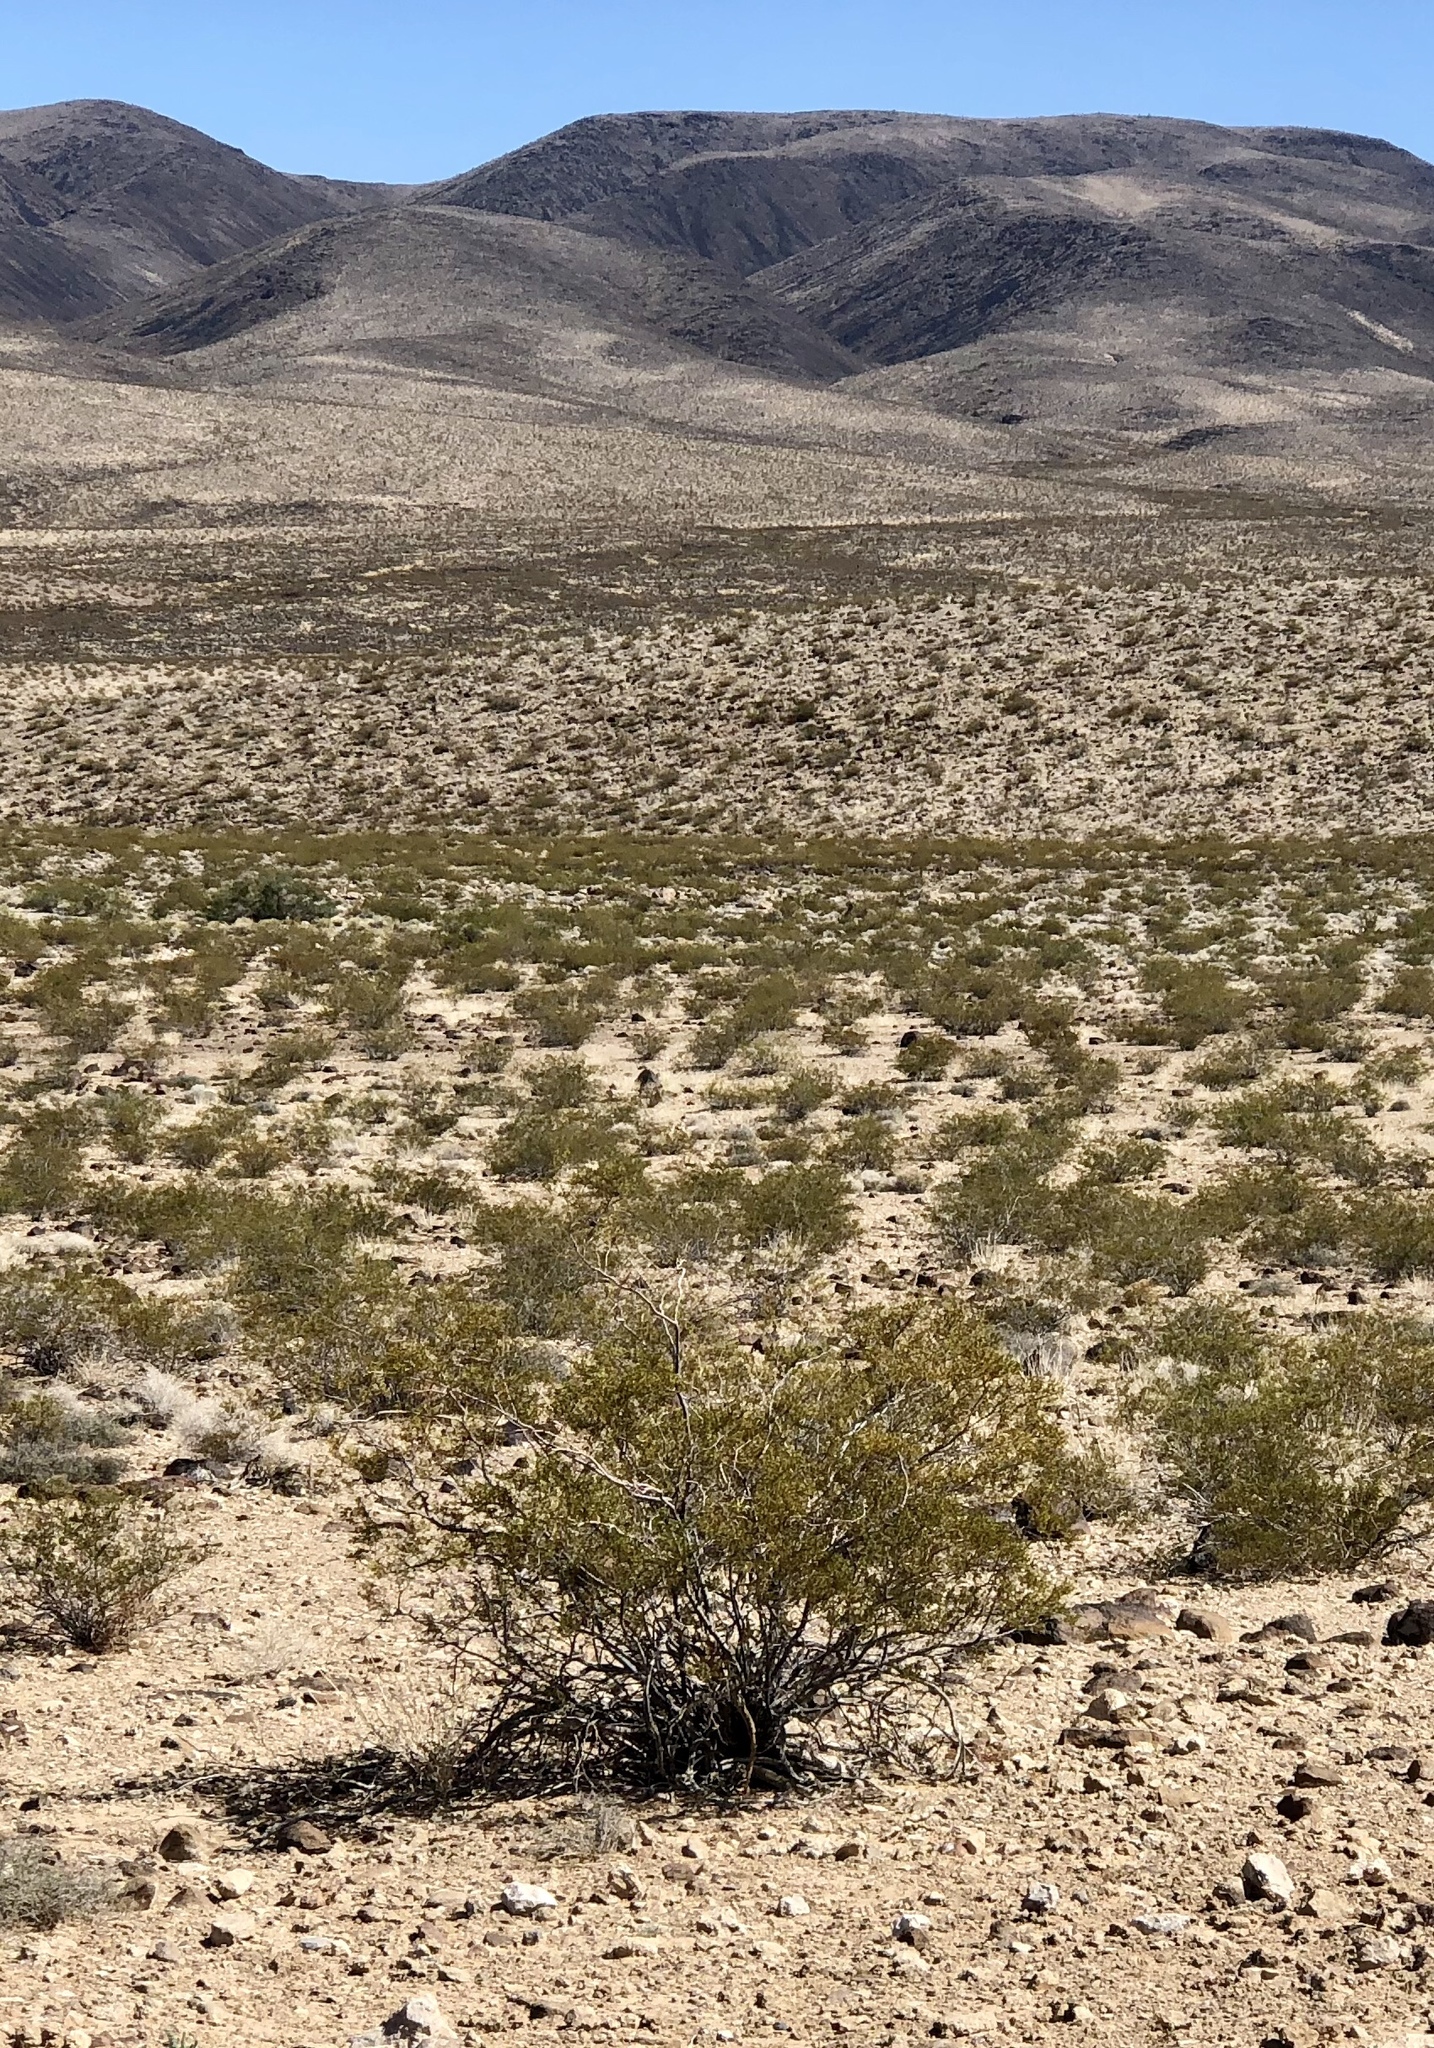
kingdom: Plantae
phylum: Tracheophyta
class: Magnoliopsida
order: Zygophyllales
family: Zygophyllaceae
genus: Larrea
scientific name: Larrea tridentata
